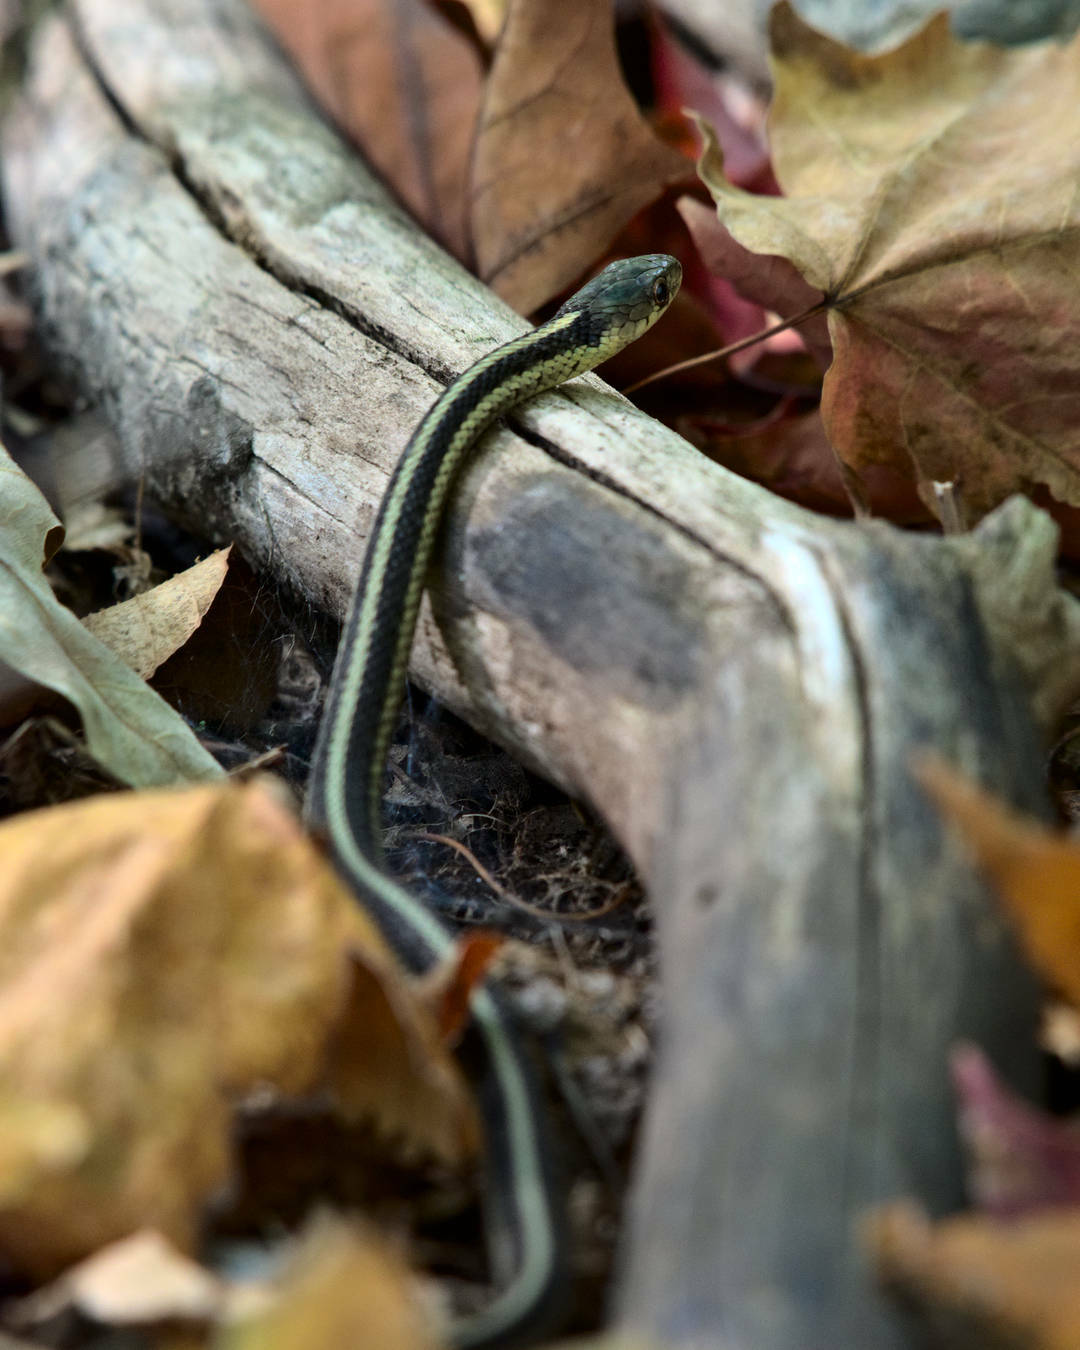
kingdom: Animalia
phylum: Chordata
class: Squamata
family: Colubridae
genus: Thamnophis
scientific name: Thamnophis sirtalis
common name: Common garter snake
